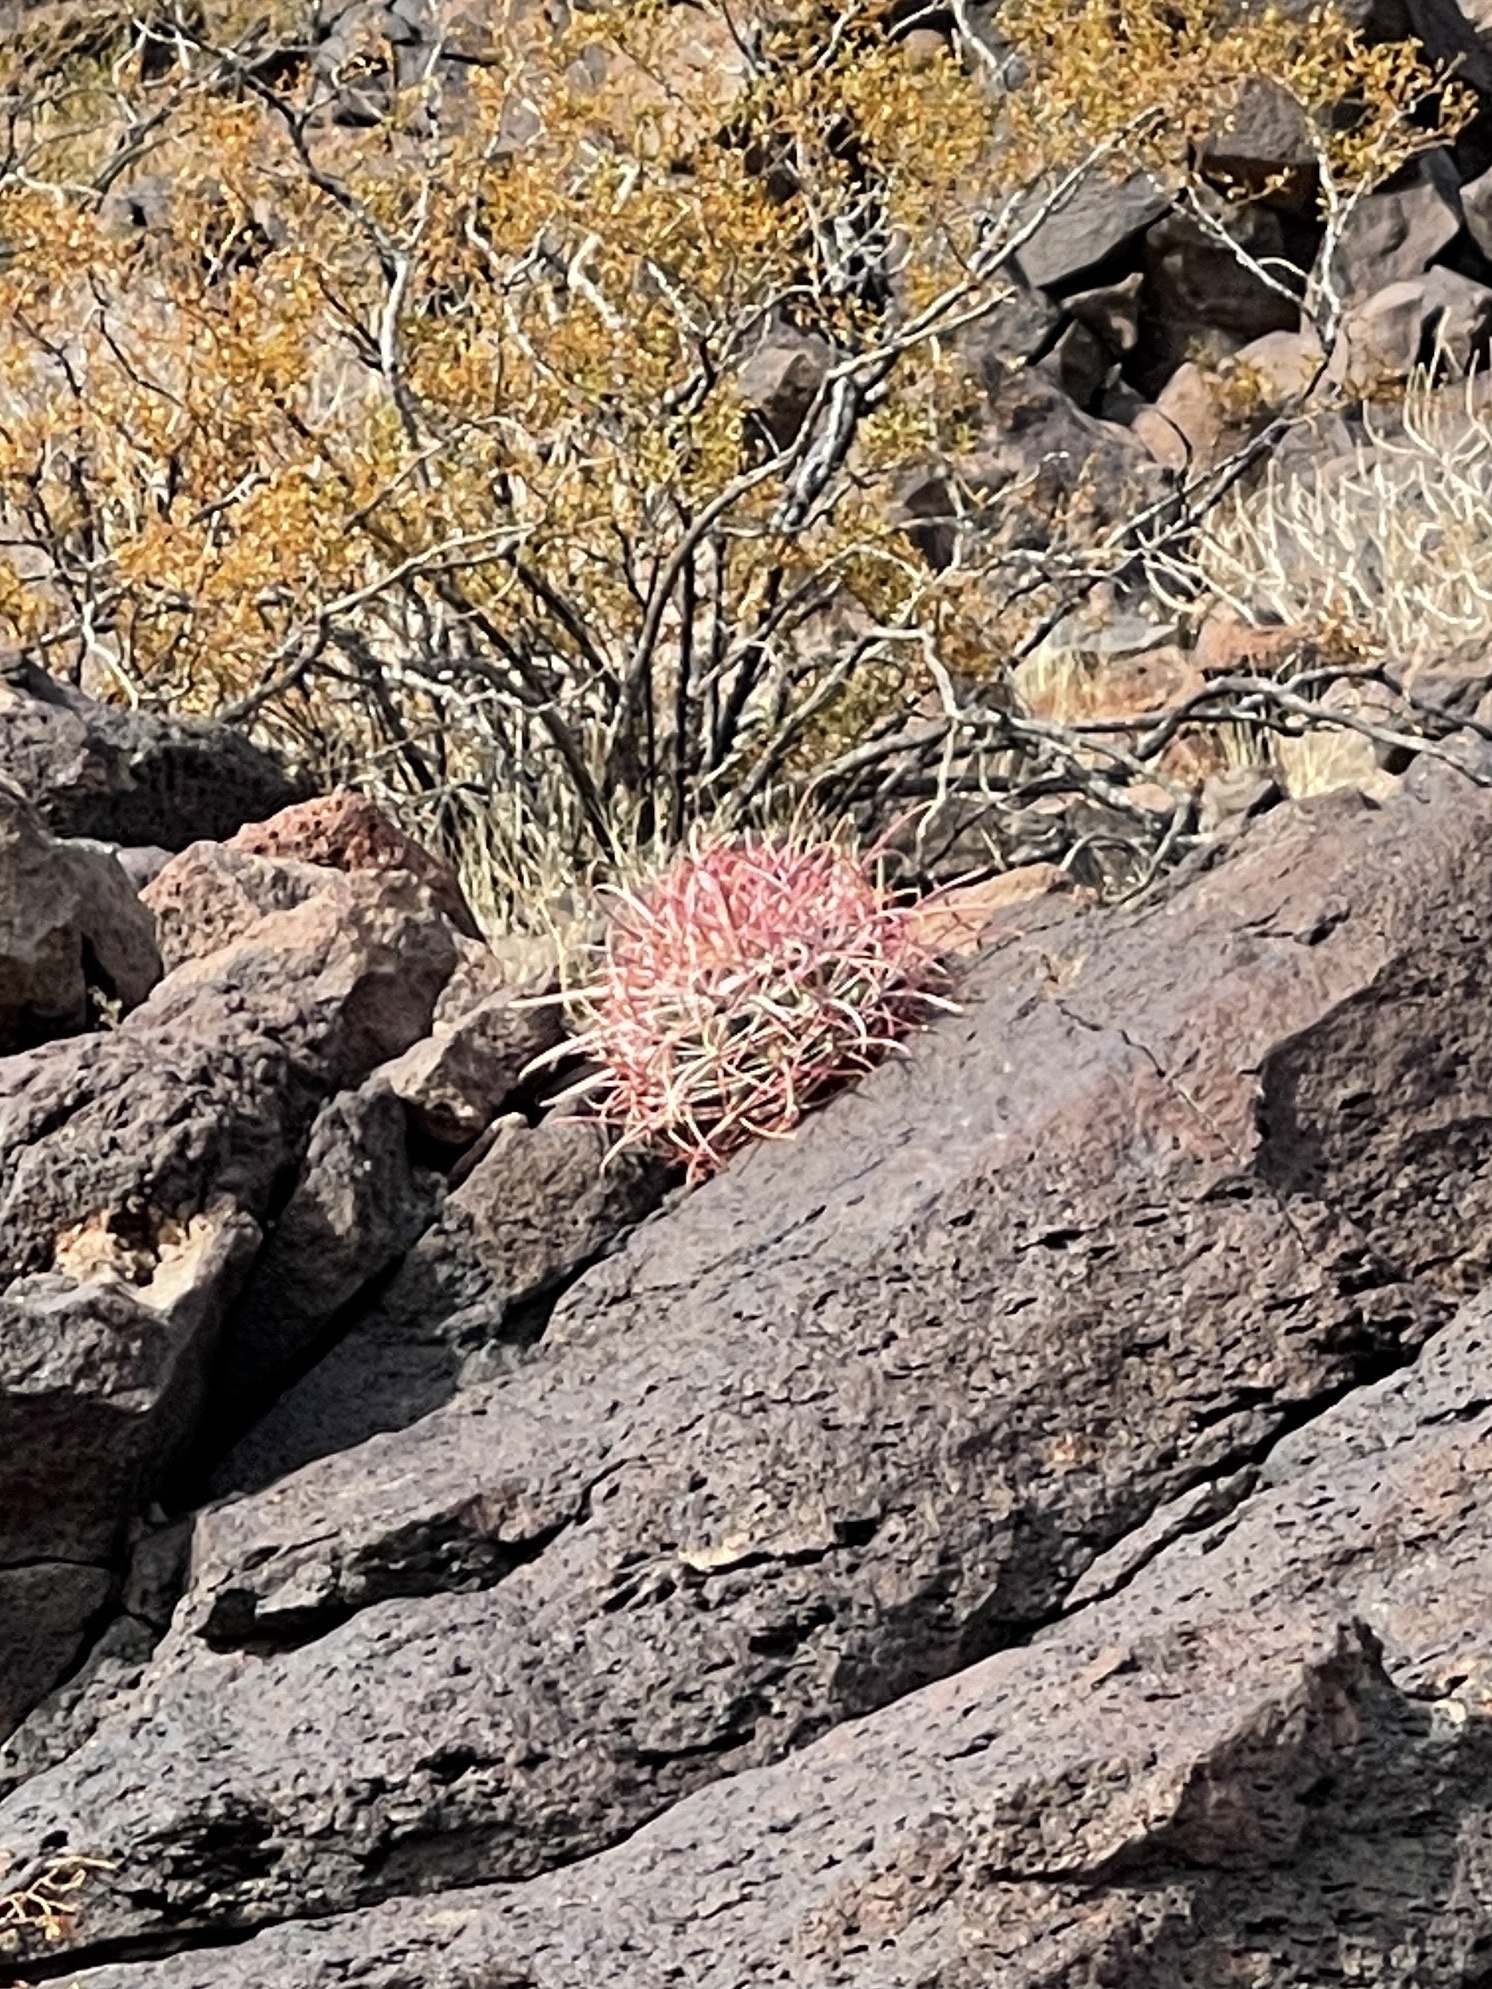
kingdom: Plantae
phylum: Tracheophyta
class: Magnoliopsida
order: Caryophyllales
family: Cactaceae
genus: Ferocactus
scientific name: Ferocactus cylindraceus
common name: California barrel cactus
